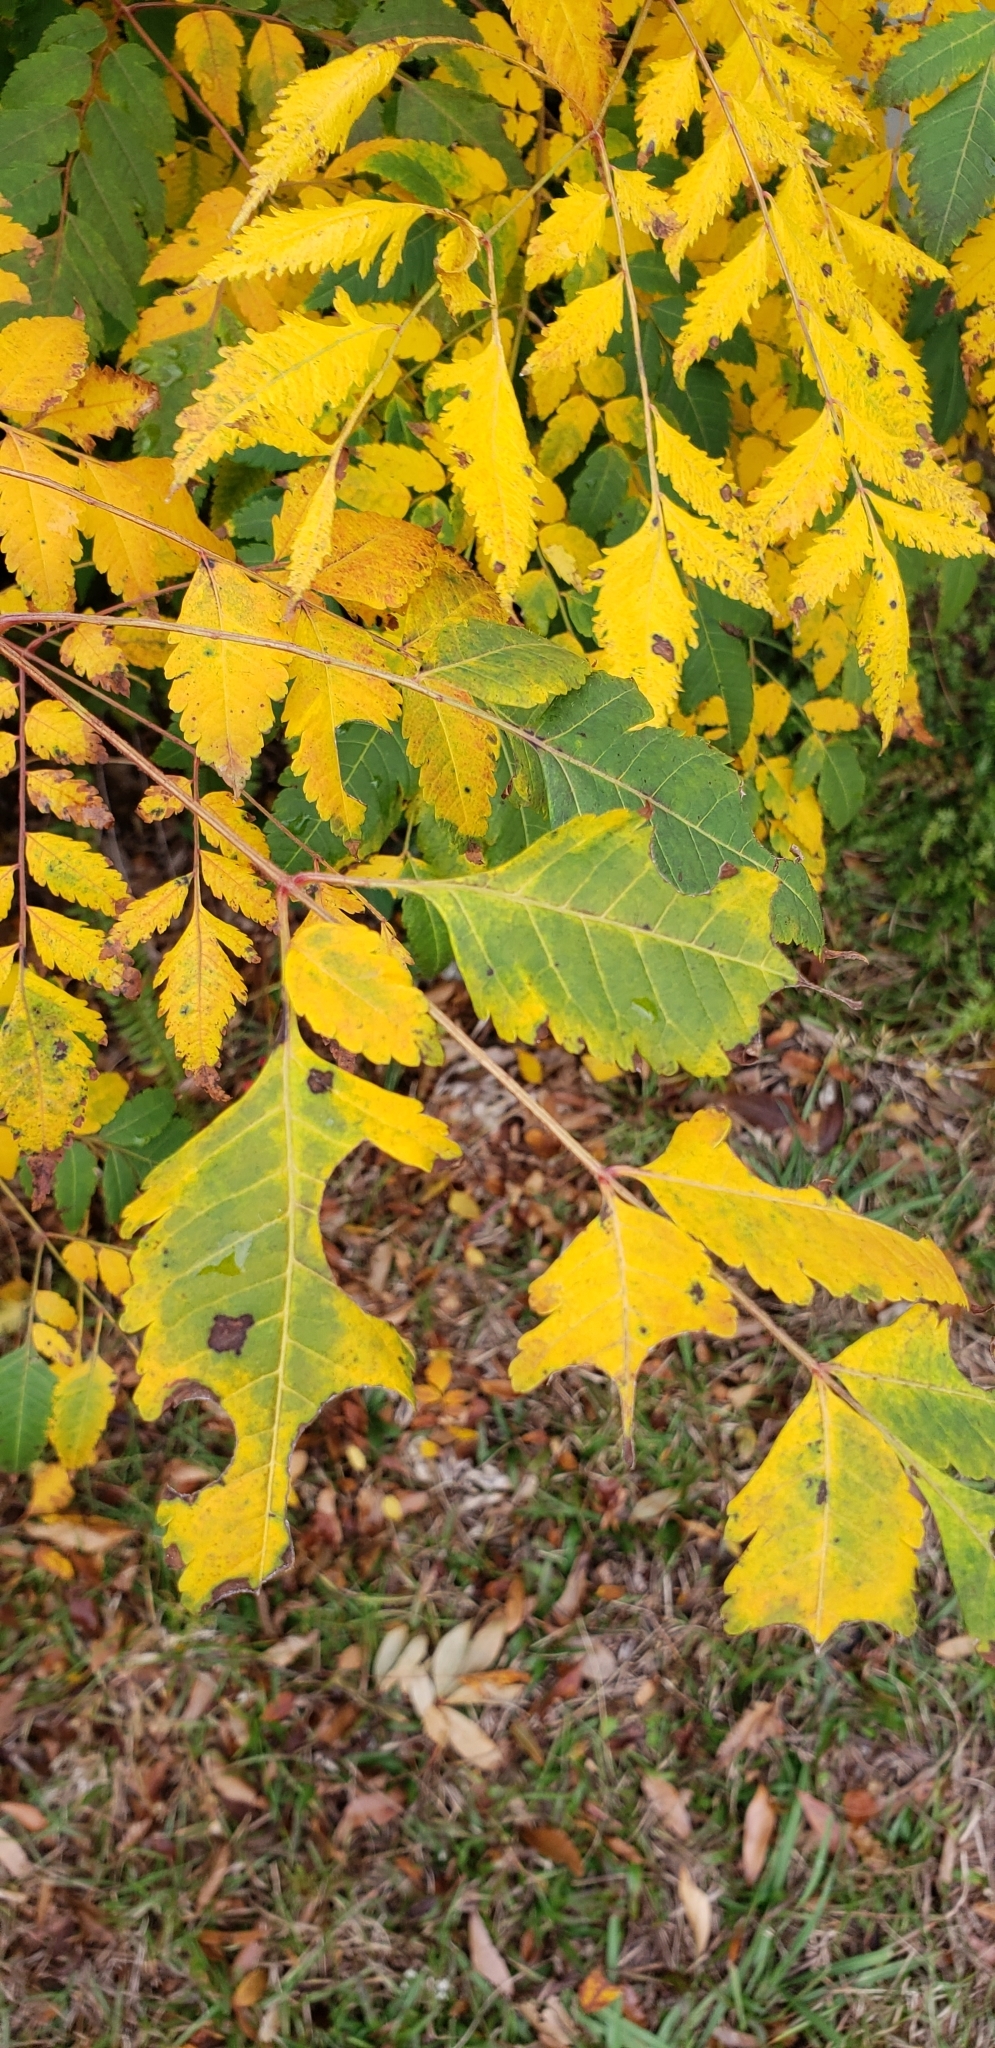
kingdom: Plantae
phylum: Tracheophyta
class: Magnoliopsida
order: Sapindales
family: Sapindaceae
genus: Koelreuteria
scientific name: Koelreuteria elegans
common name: Chinese flame tree
